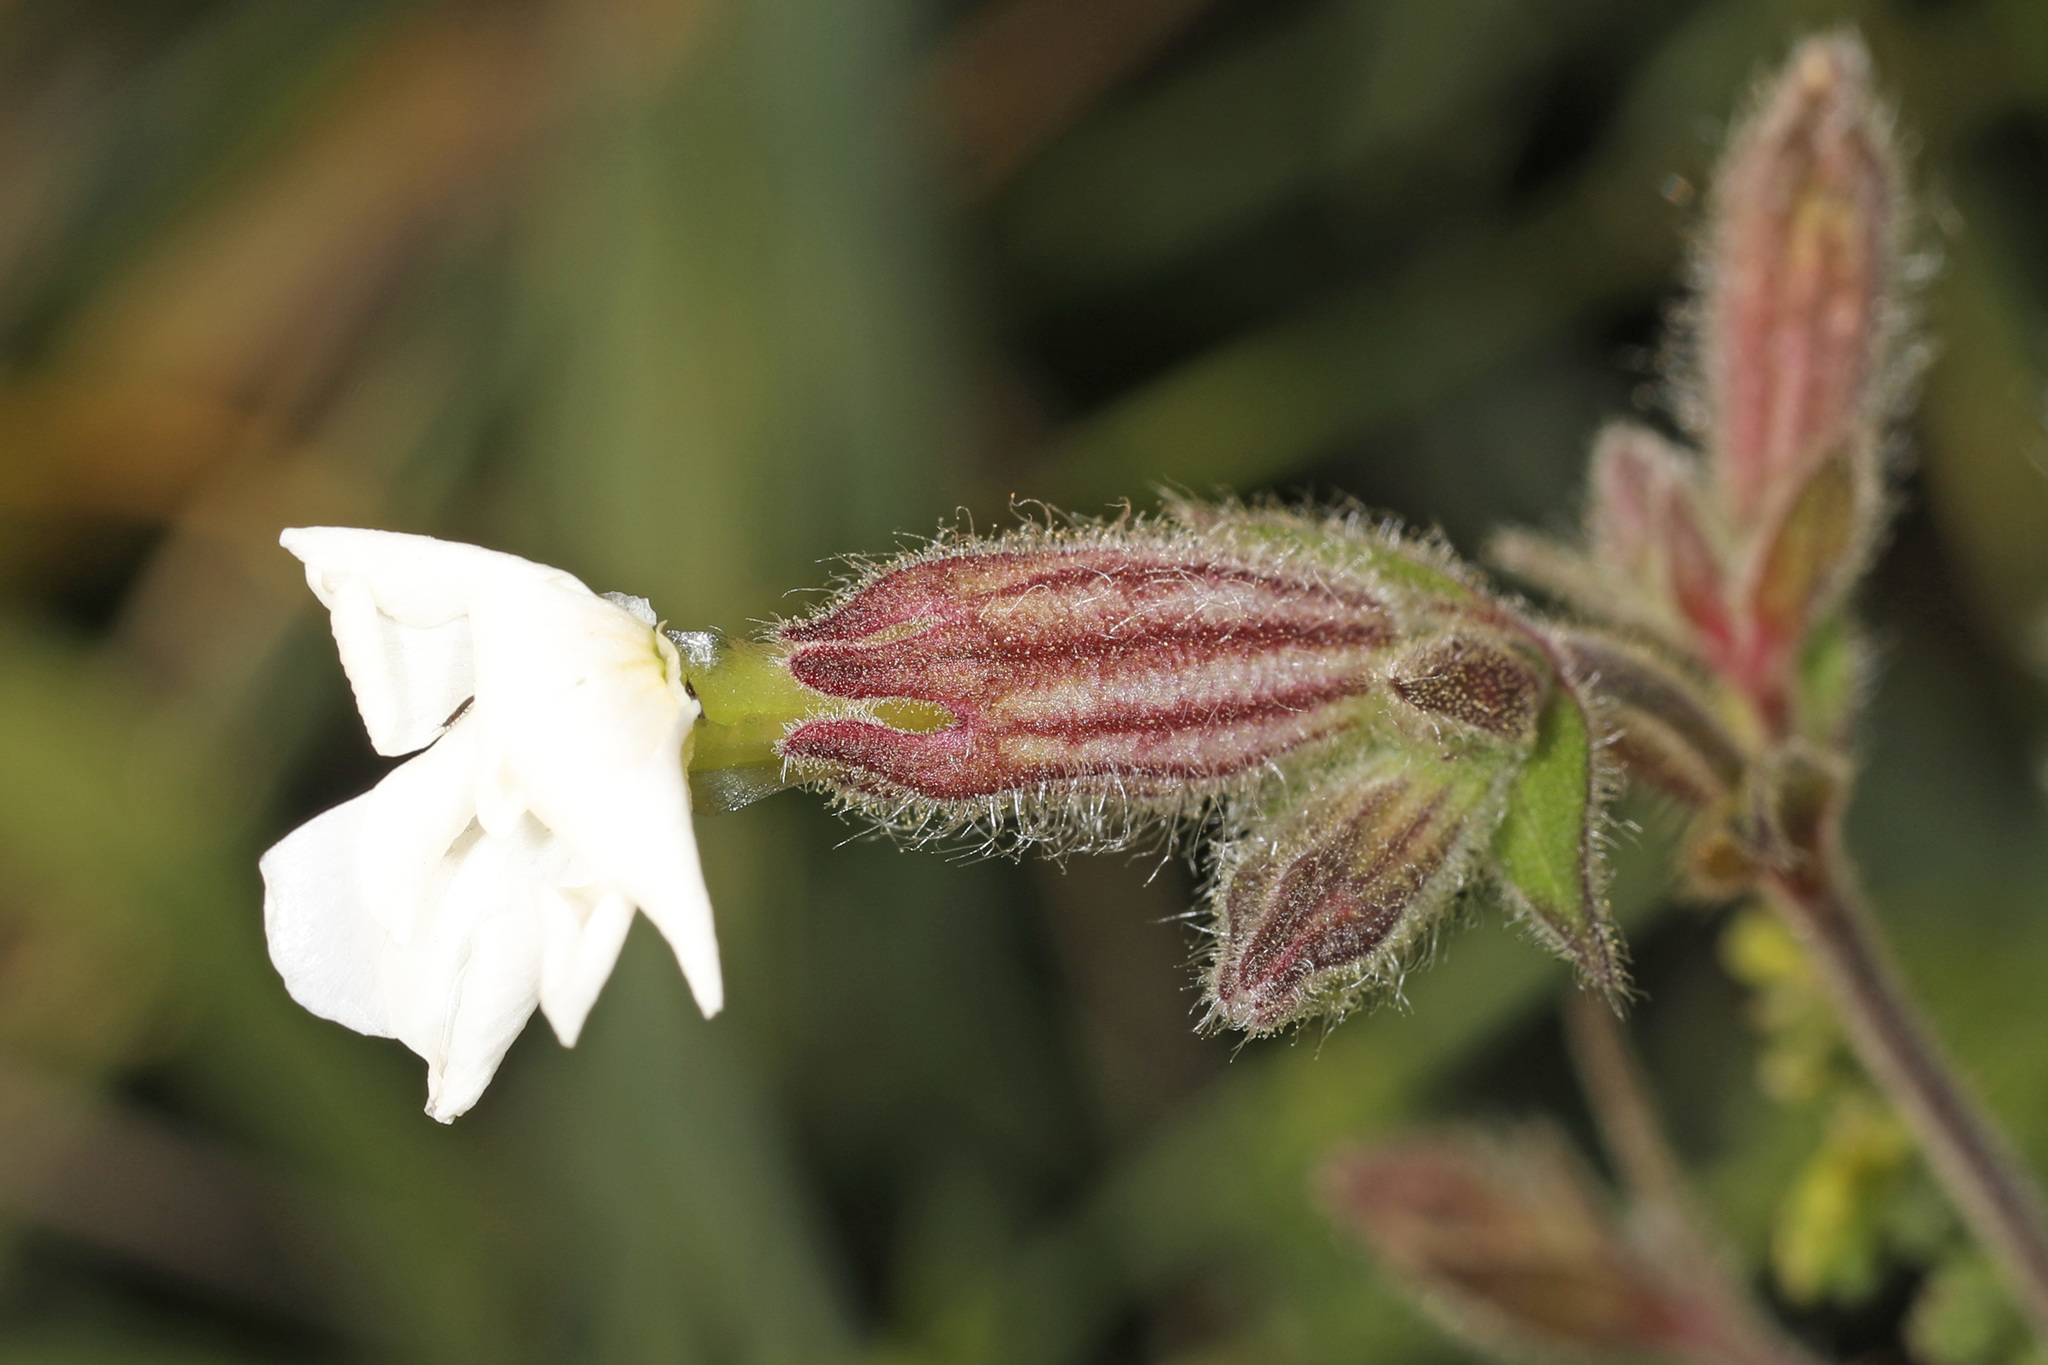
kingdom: Plantae
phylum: Tracheophyta
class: Magnoliopsida
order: Caryophyllales
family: Caryophyllaceae
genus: Silene
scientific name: Silene latifolia
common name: White campion
